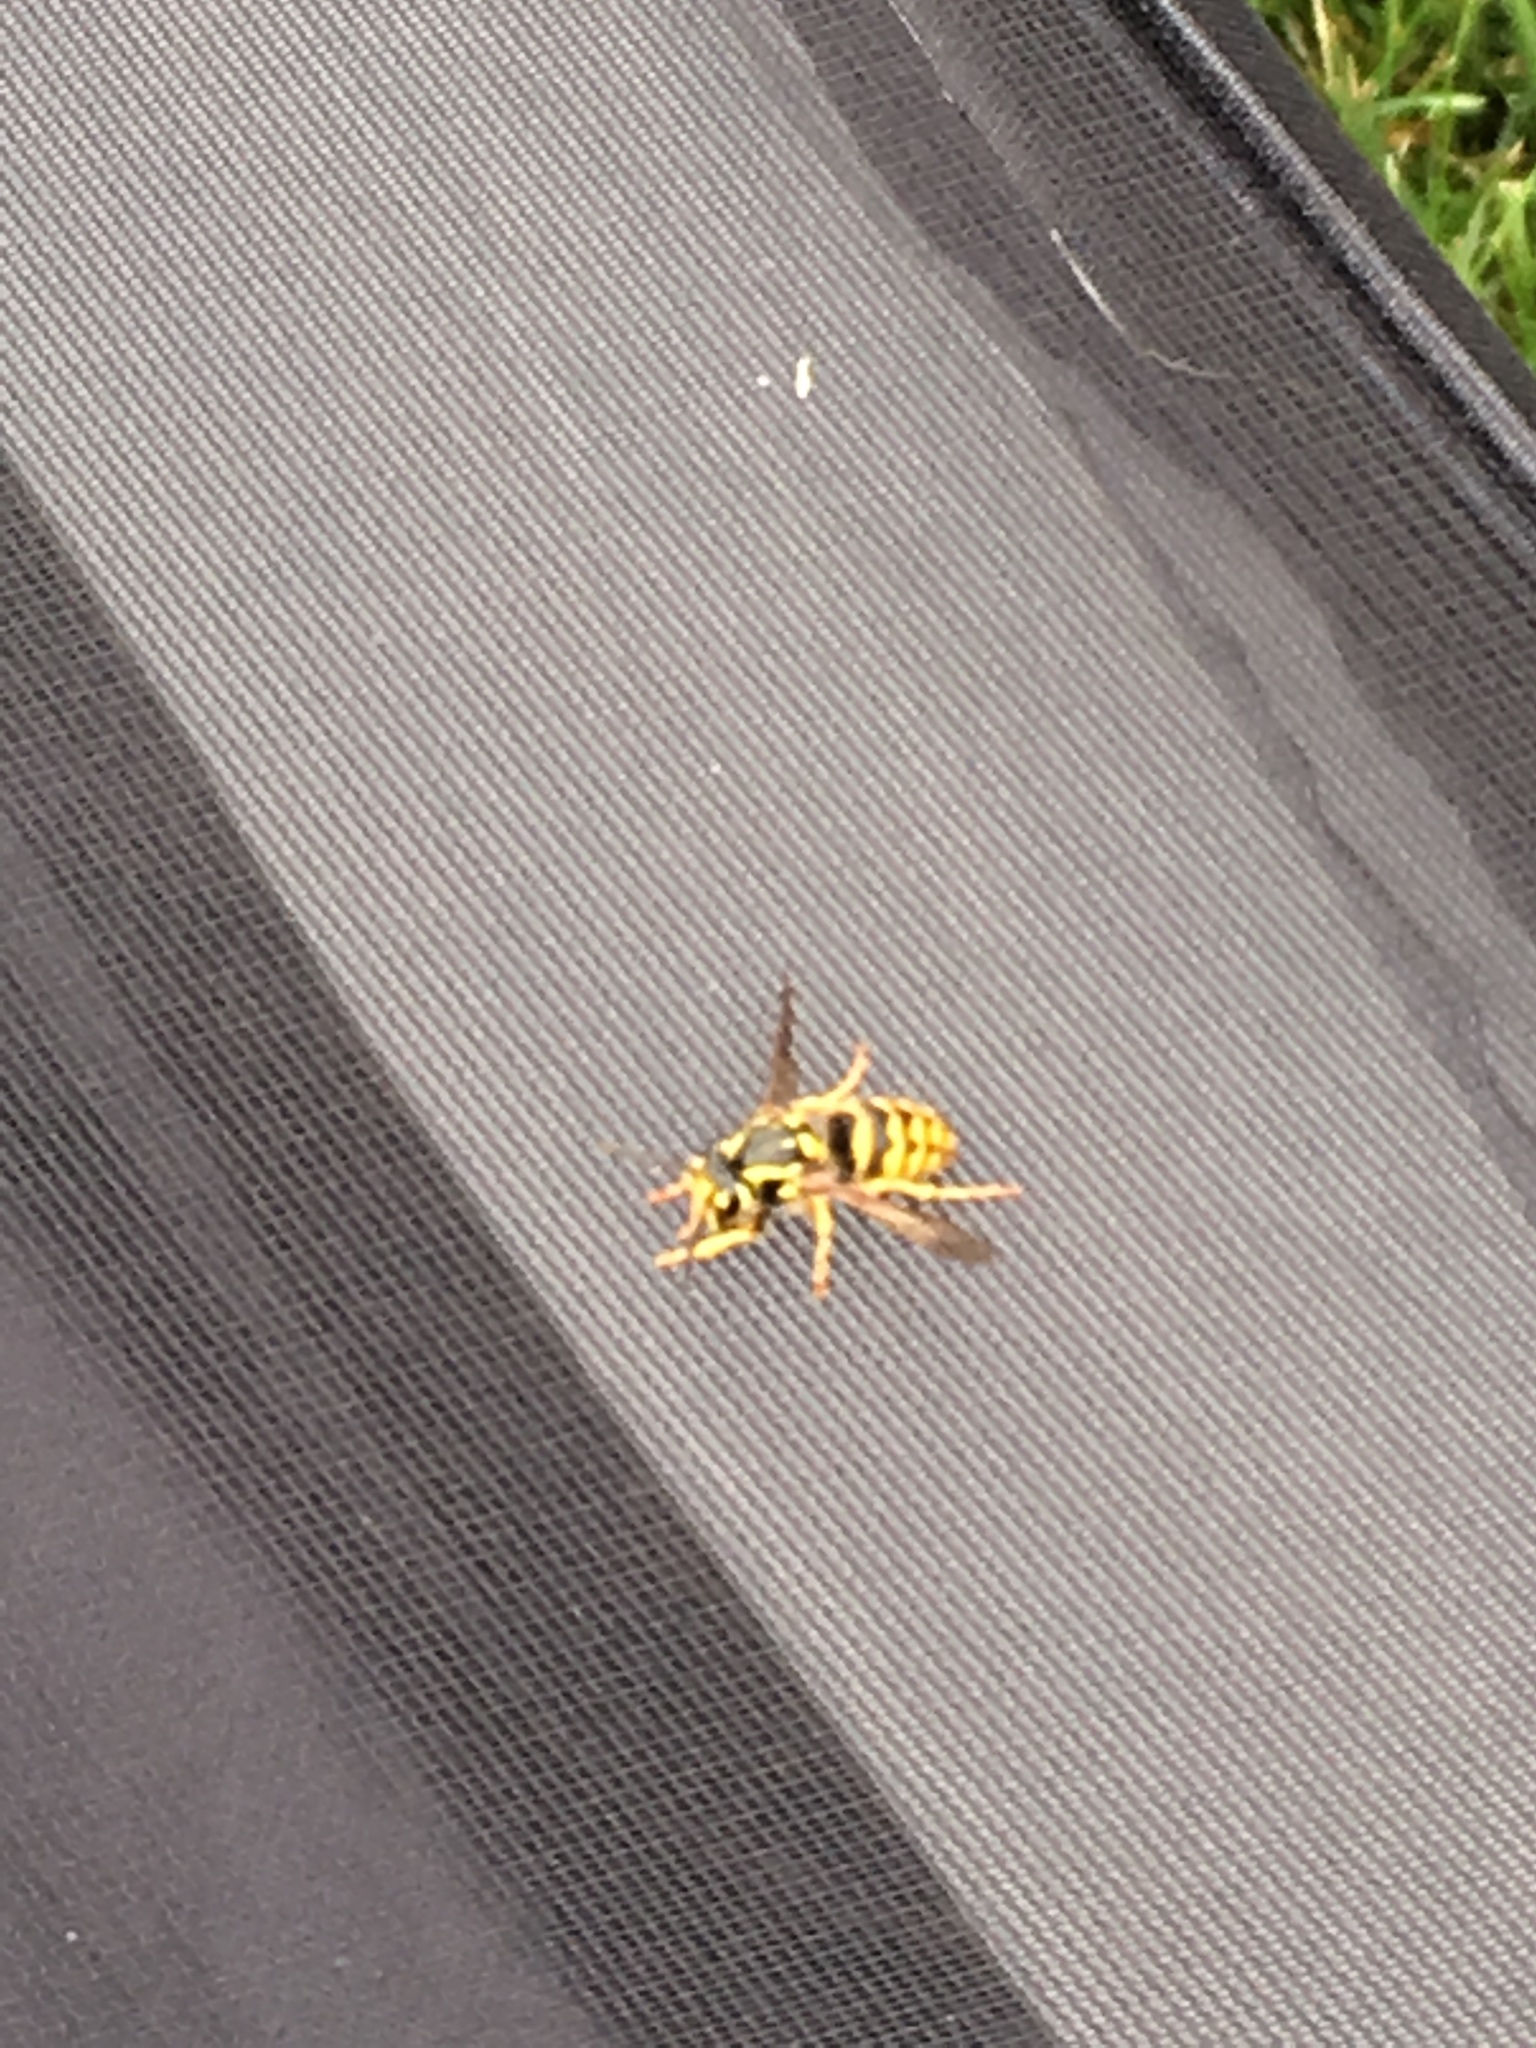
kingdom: Animalia
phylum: Arthropoda
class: Insecta
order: Hymenoptera
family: Vespidae
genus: Dolichovespula
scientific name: Dolichovespula arenaria
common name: Aerial yellowjacket
